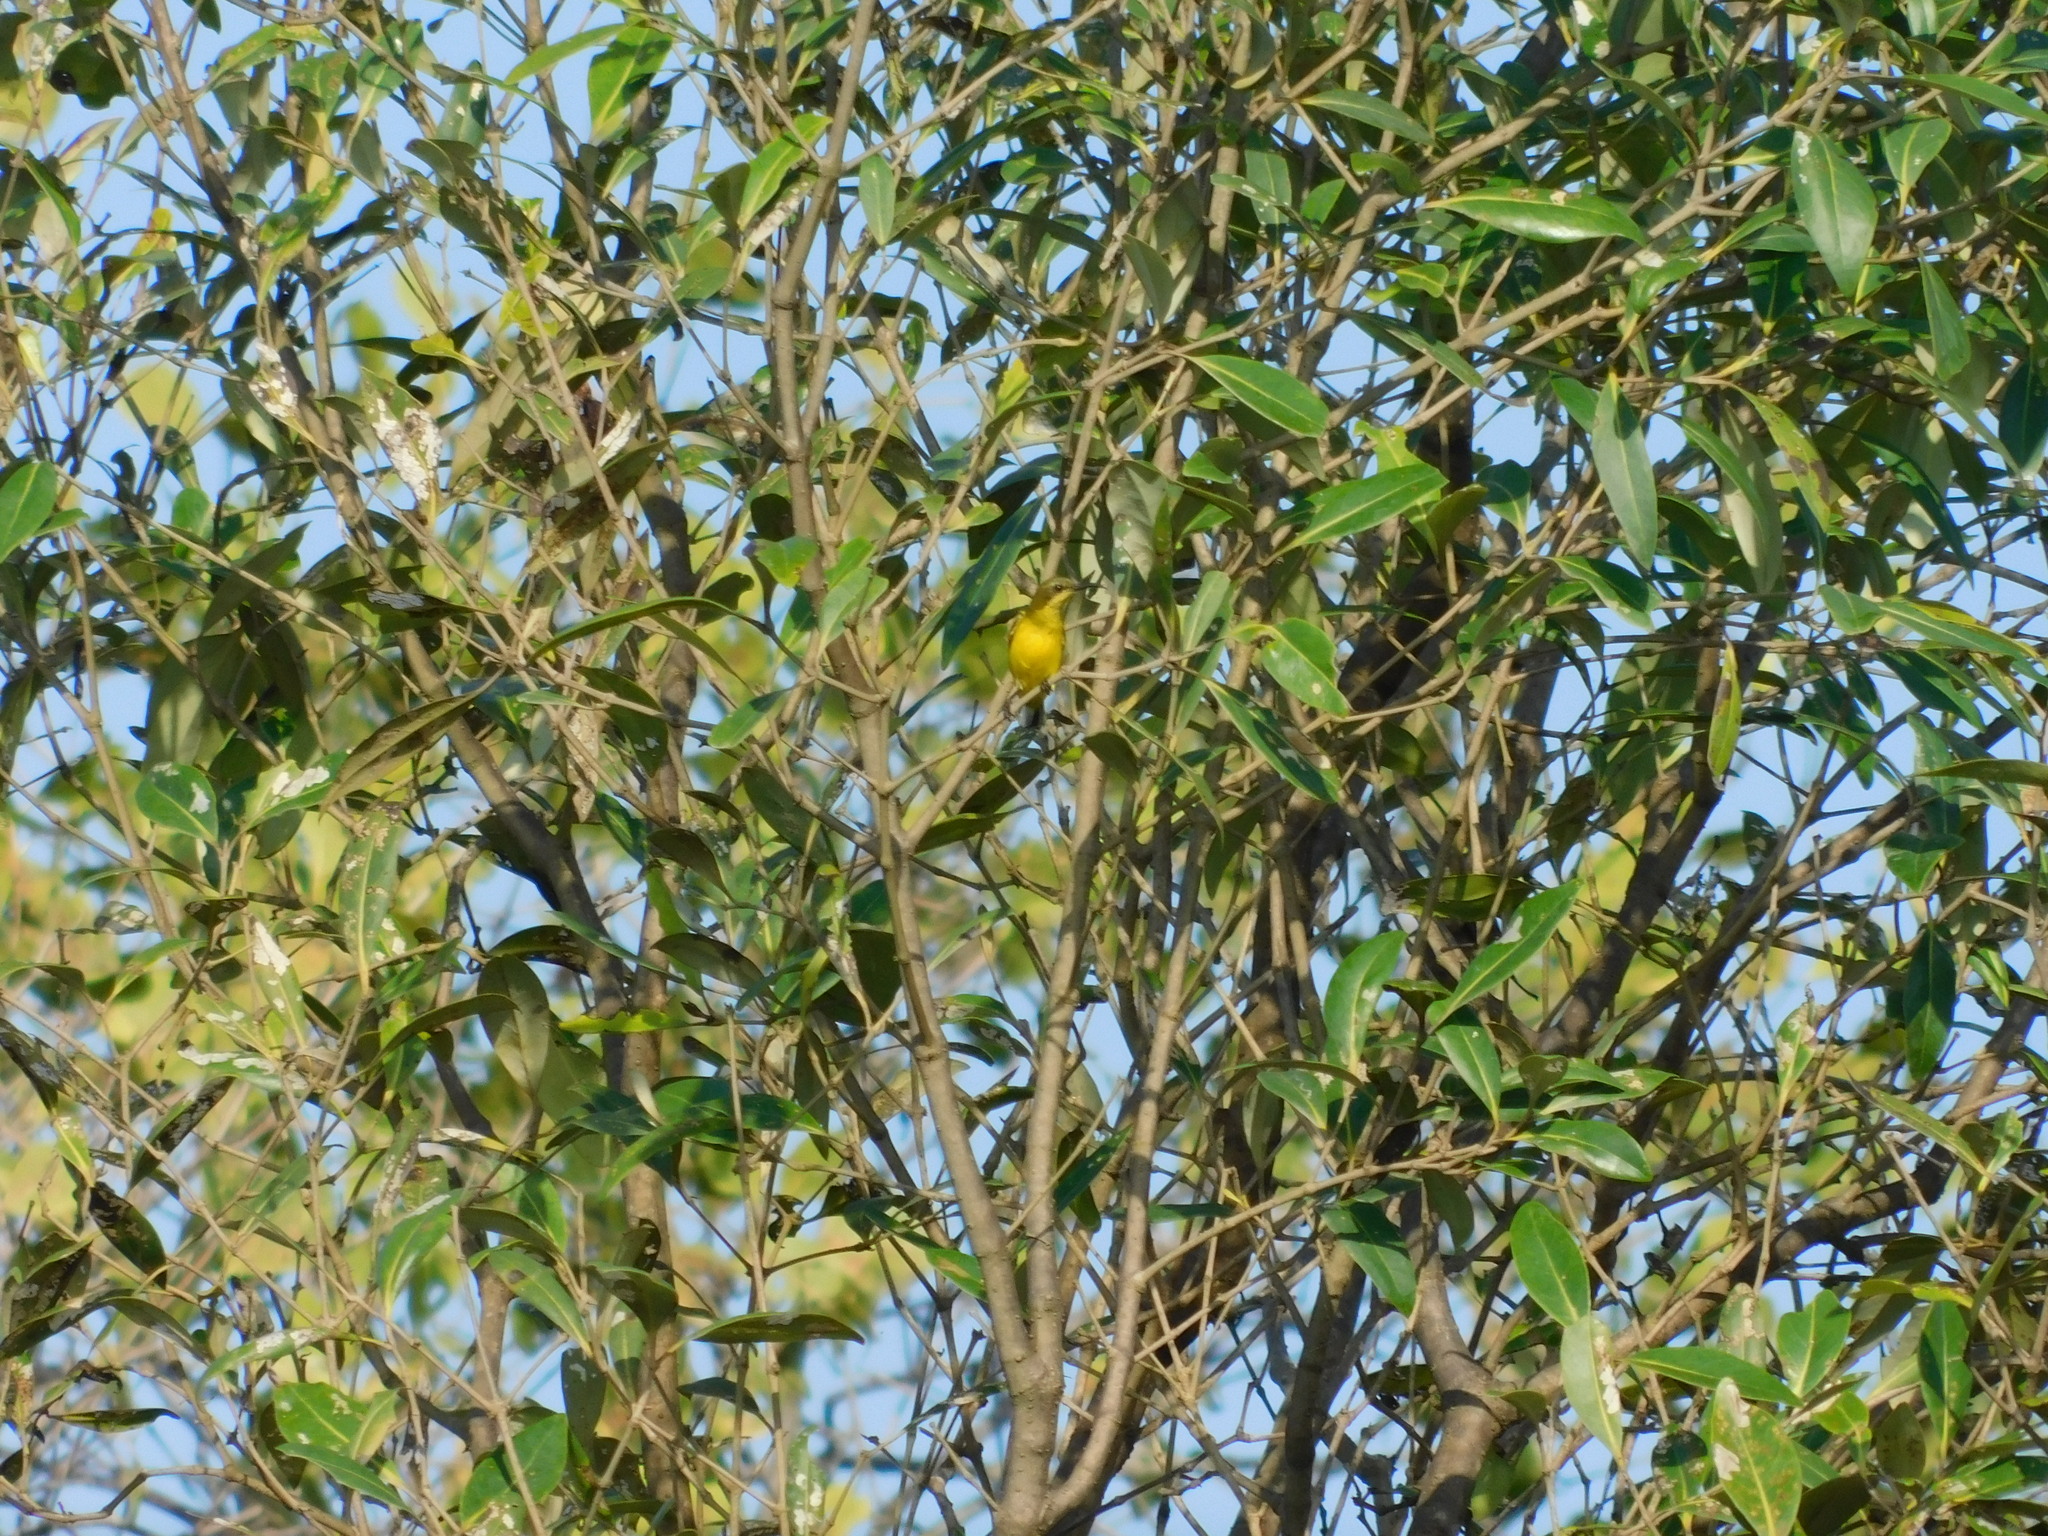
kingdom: Animalia
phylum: Chordata
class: Aves
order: Passeriformes
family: Nectariniidae
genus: Cinnyris
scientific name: Cinnyris
